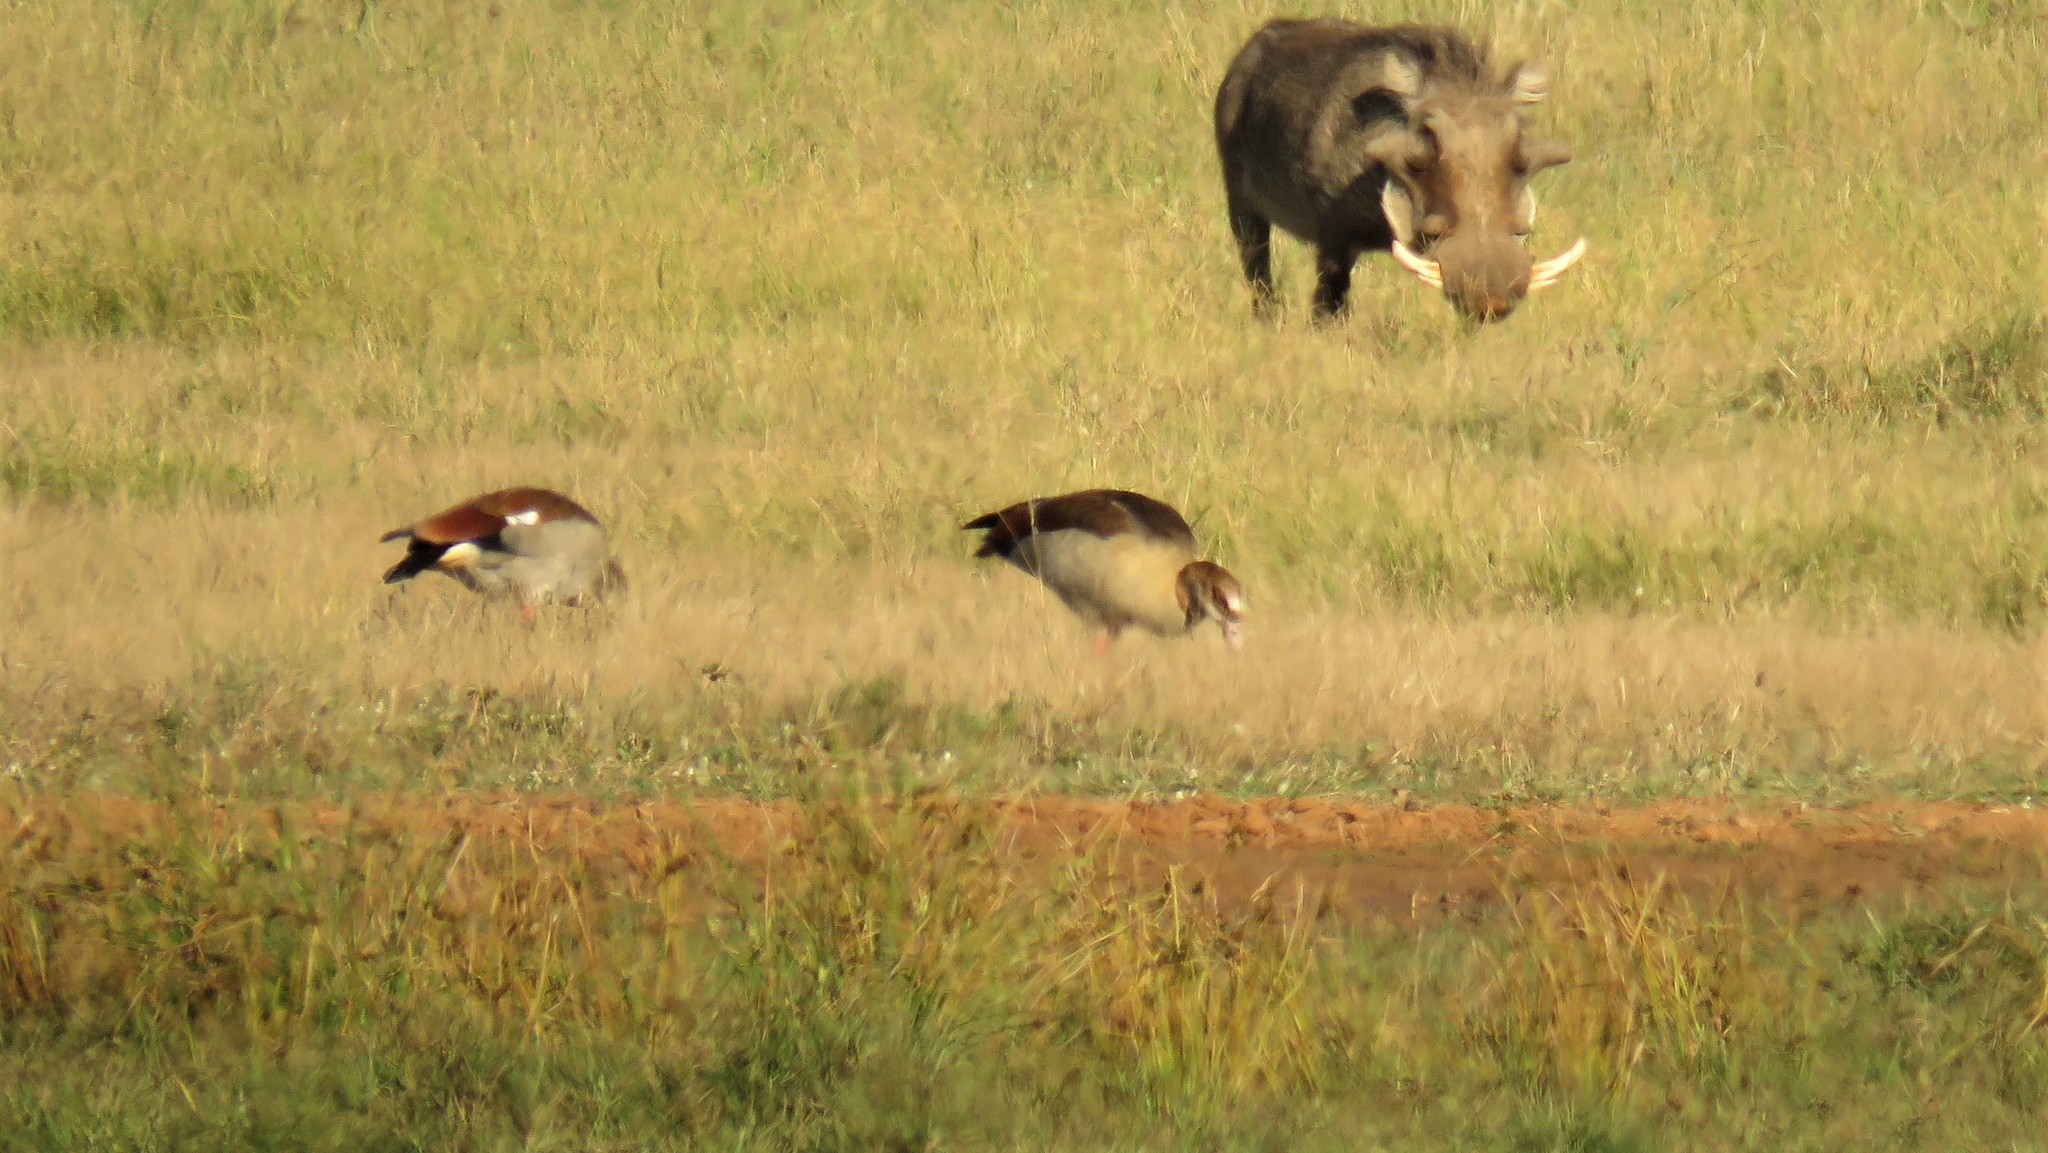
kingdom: Animalia
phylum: Chordata
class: Aves
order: Anseriformes
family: Anatidae
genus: Alopochen
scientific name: Alopochen aegyptiaca
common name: Egyptian goose
